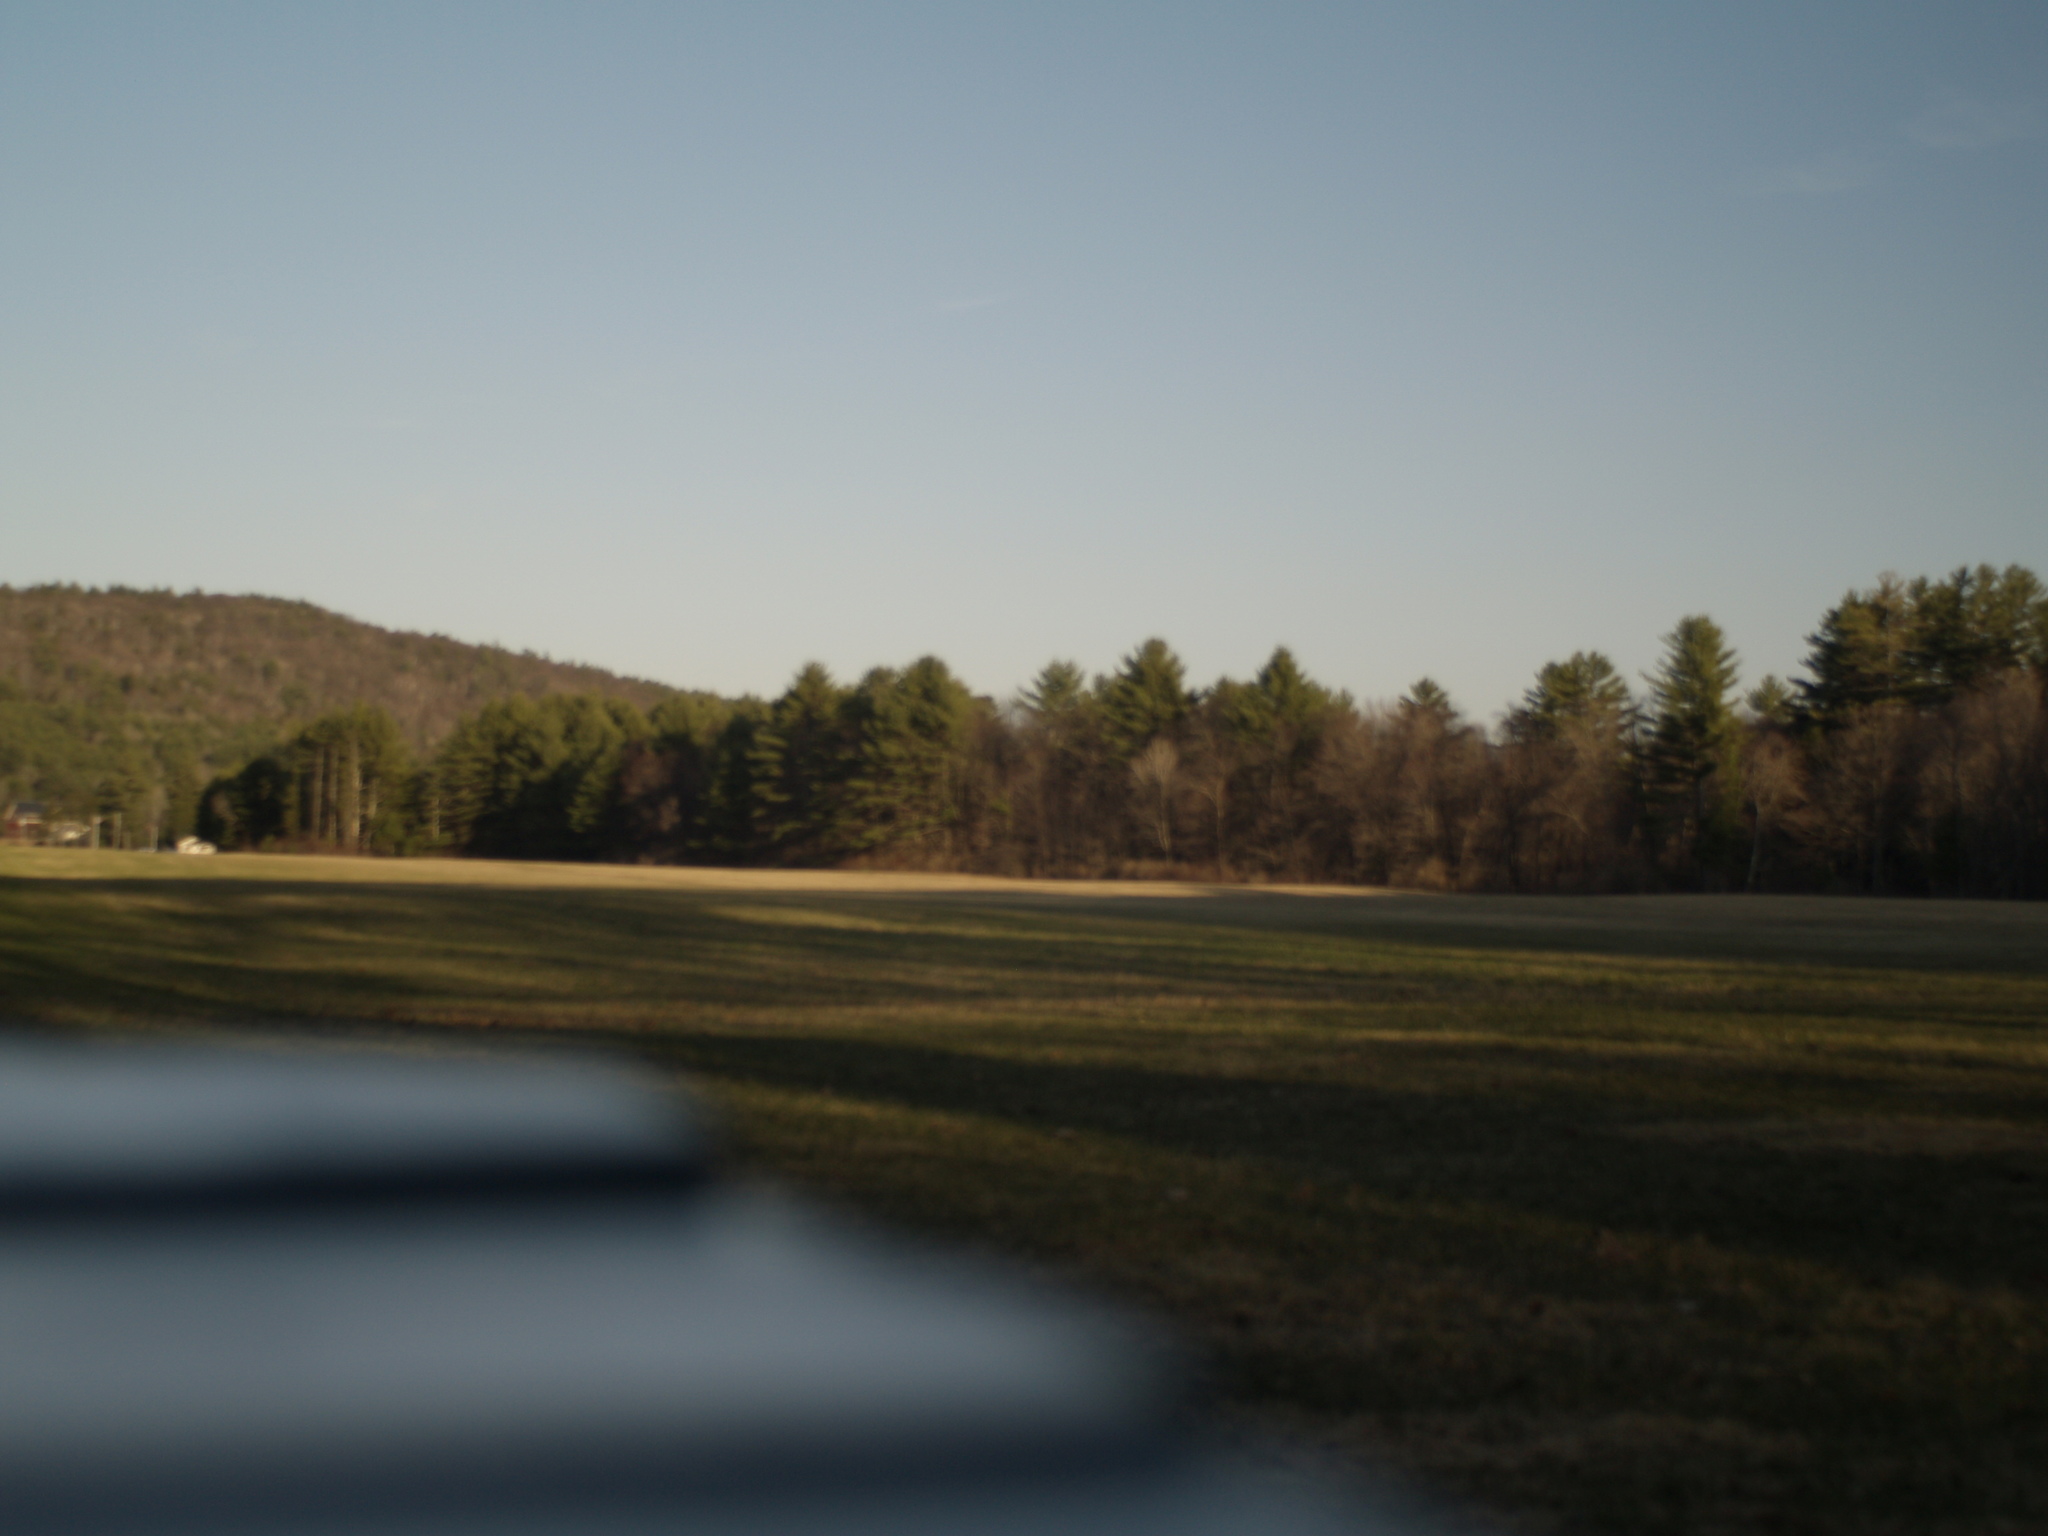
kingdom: Plantae
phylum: Tracheophyta
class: Pinopsida
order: Pinales
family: Pinaceae
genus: Pinus
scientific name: Pinus strobus
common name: Weymouth pine
